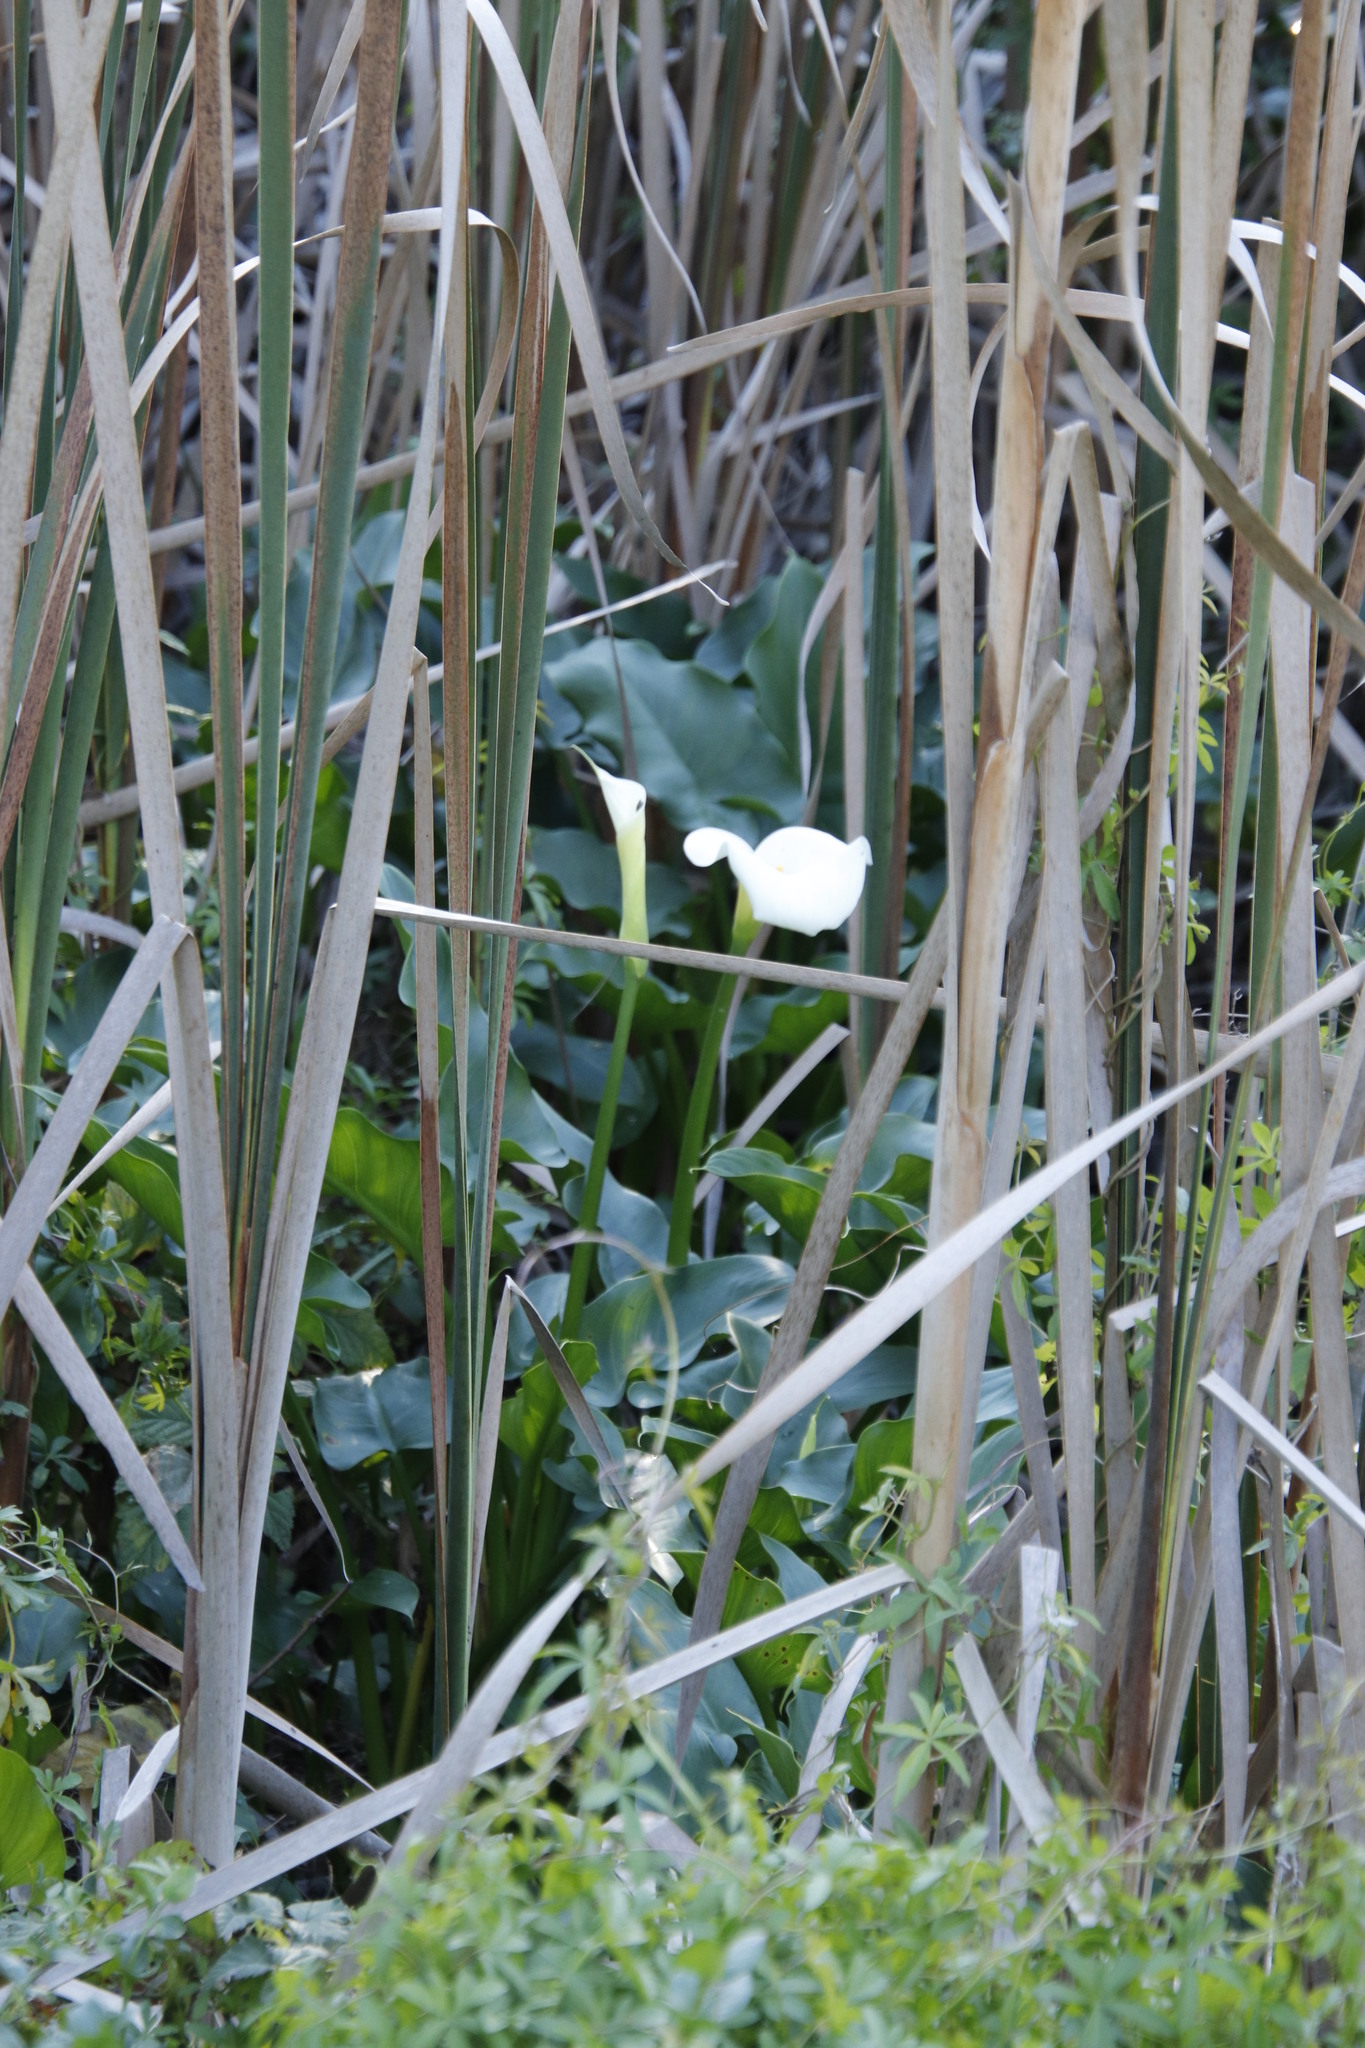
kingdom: Plantae
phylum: Tracheophyta
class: Liliopsida
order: Alismatales
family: Araceae
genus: Zantedeschia
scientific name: Zantedeschia aethiopica
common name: Altar-lily
